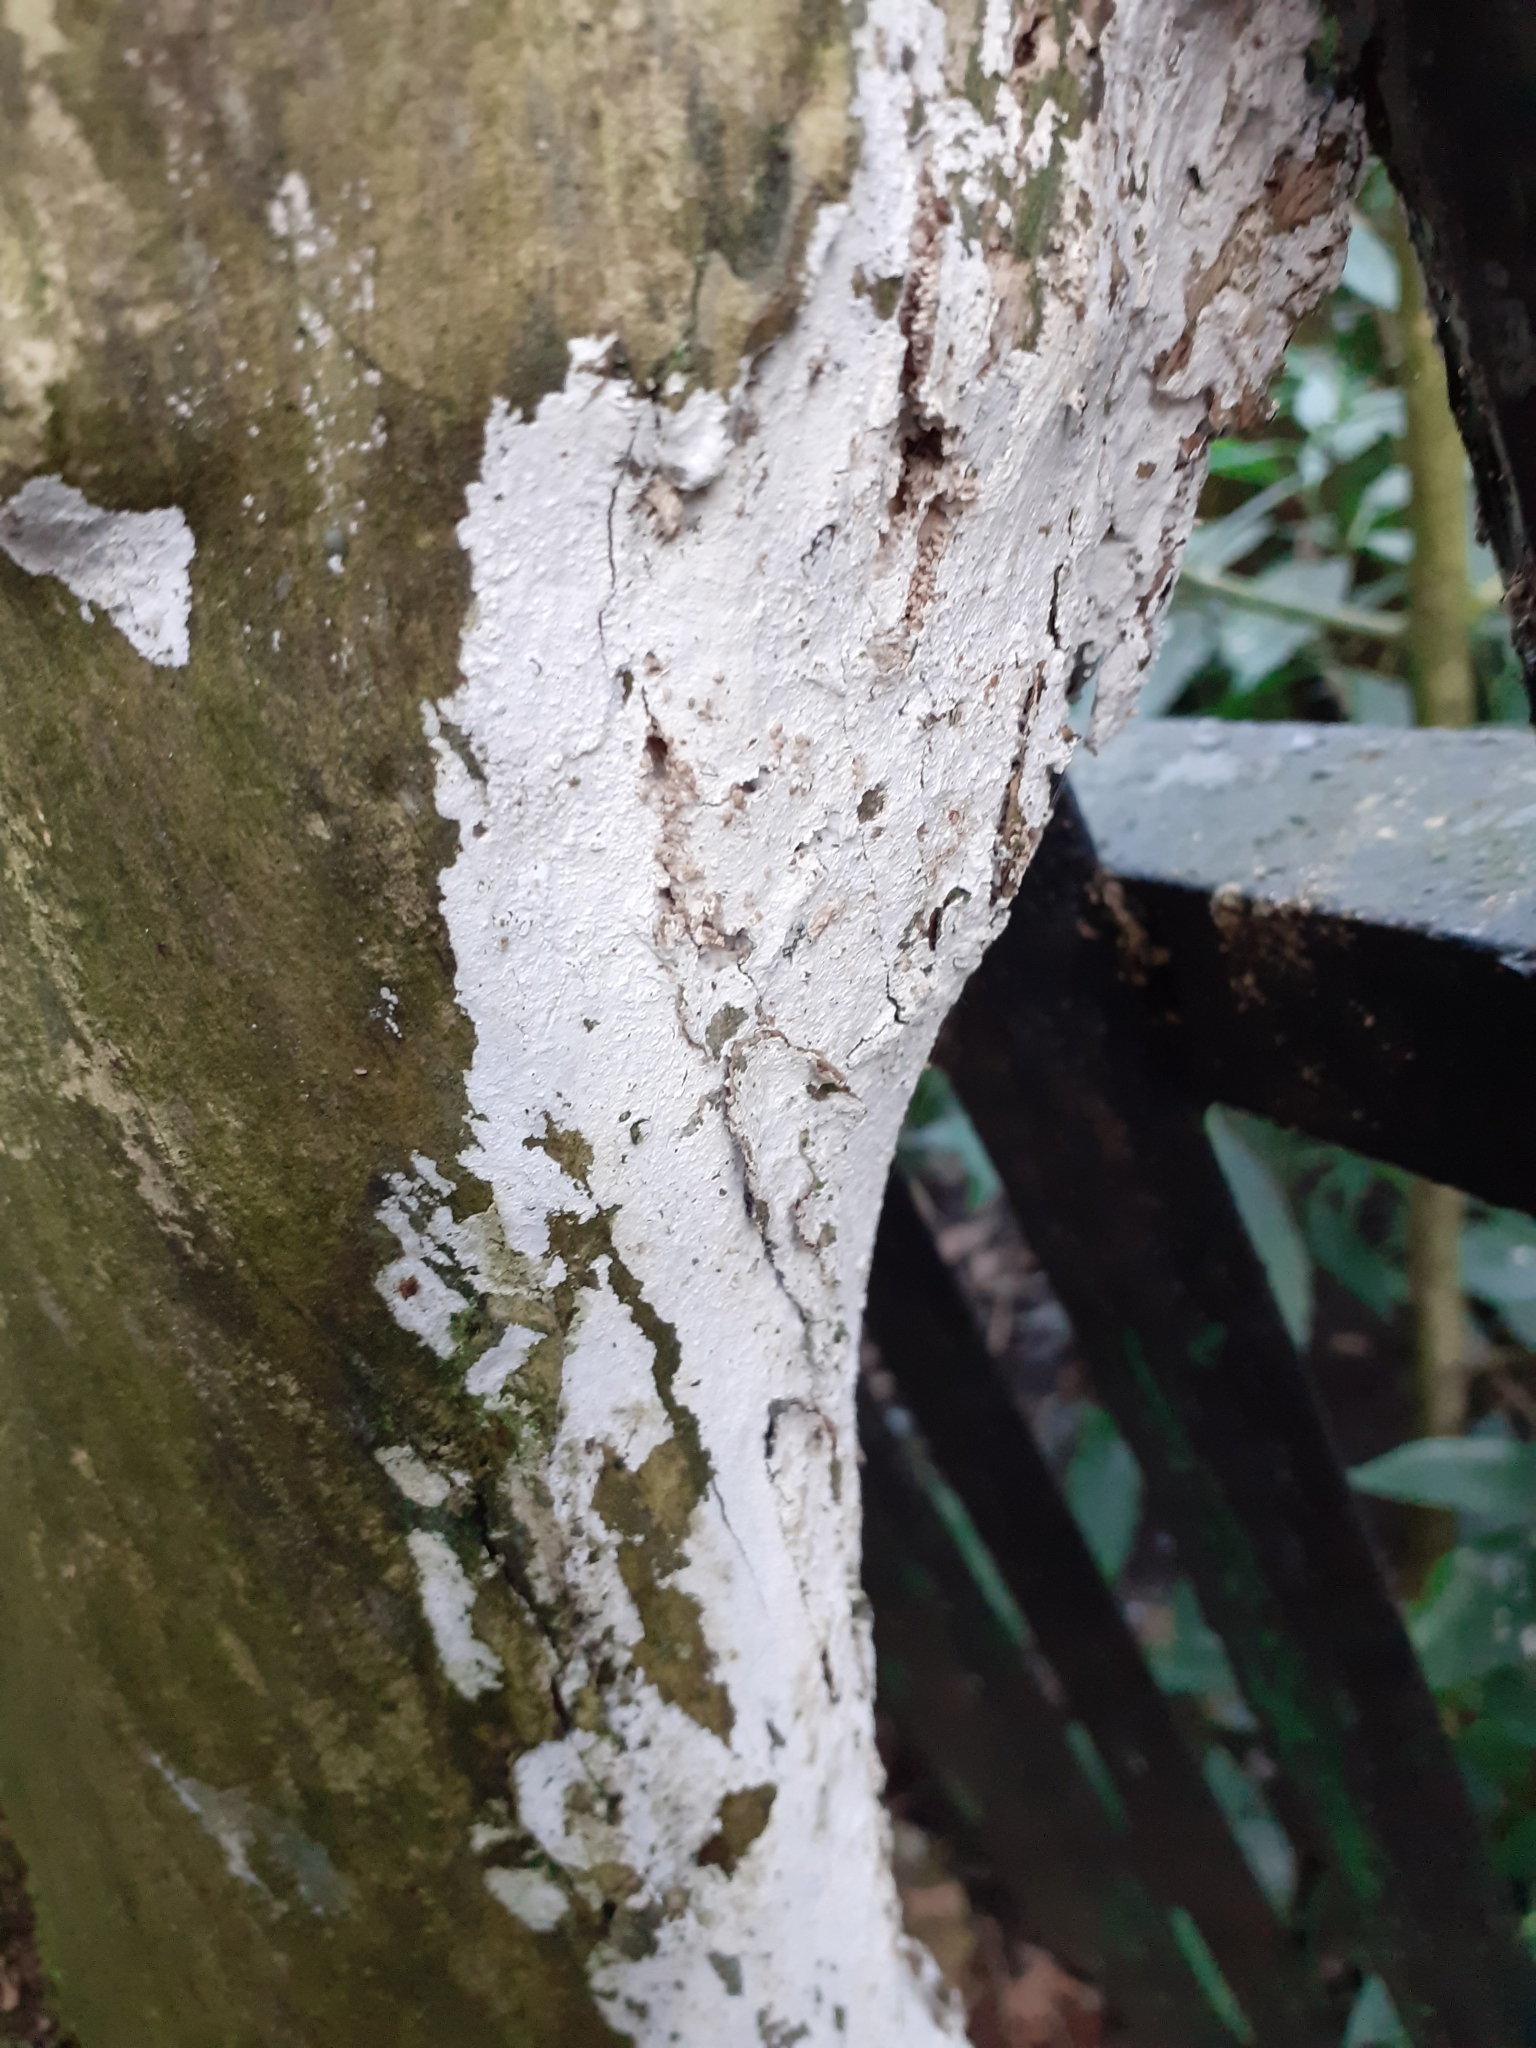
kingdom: Fungi
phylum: Basidiomycota
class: Agaricomycetes
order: Corticiales
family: Corticiaceae
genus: Lyomyces
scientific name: Lyomyces sambuci
